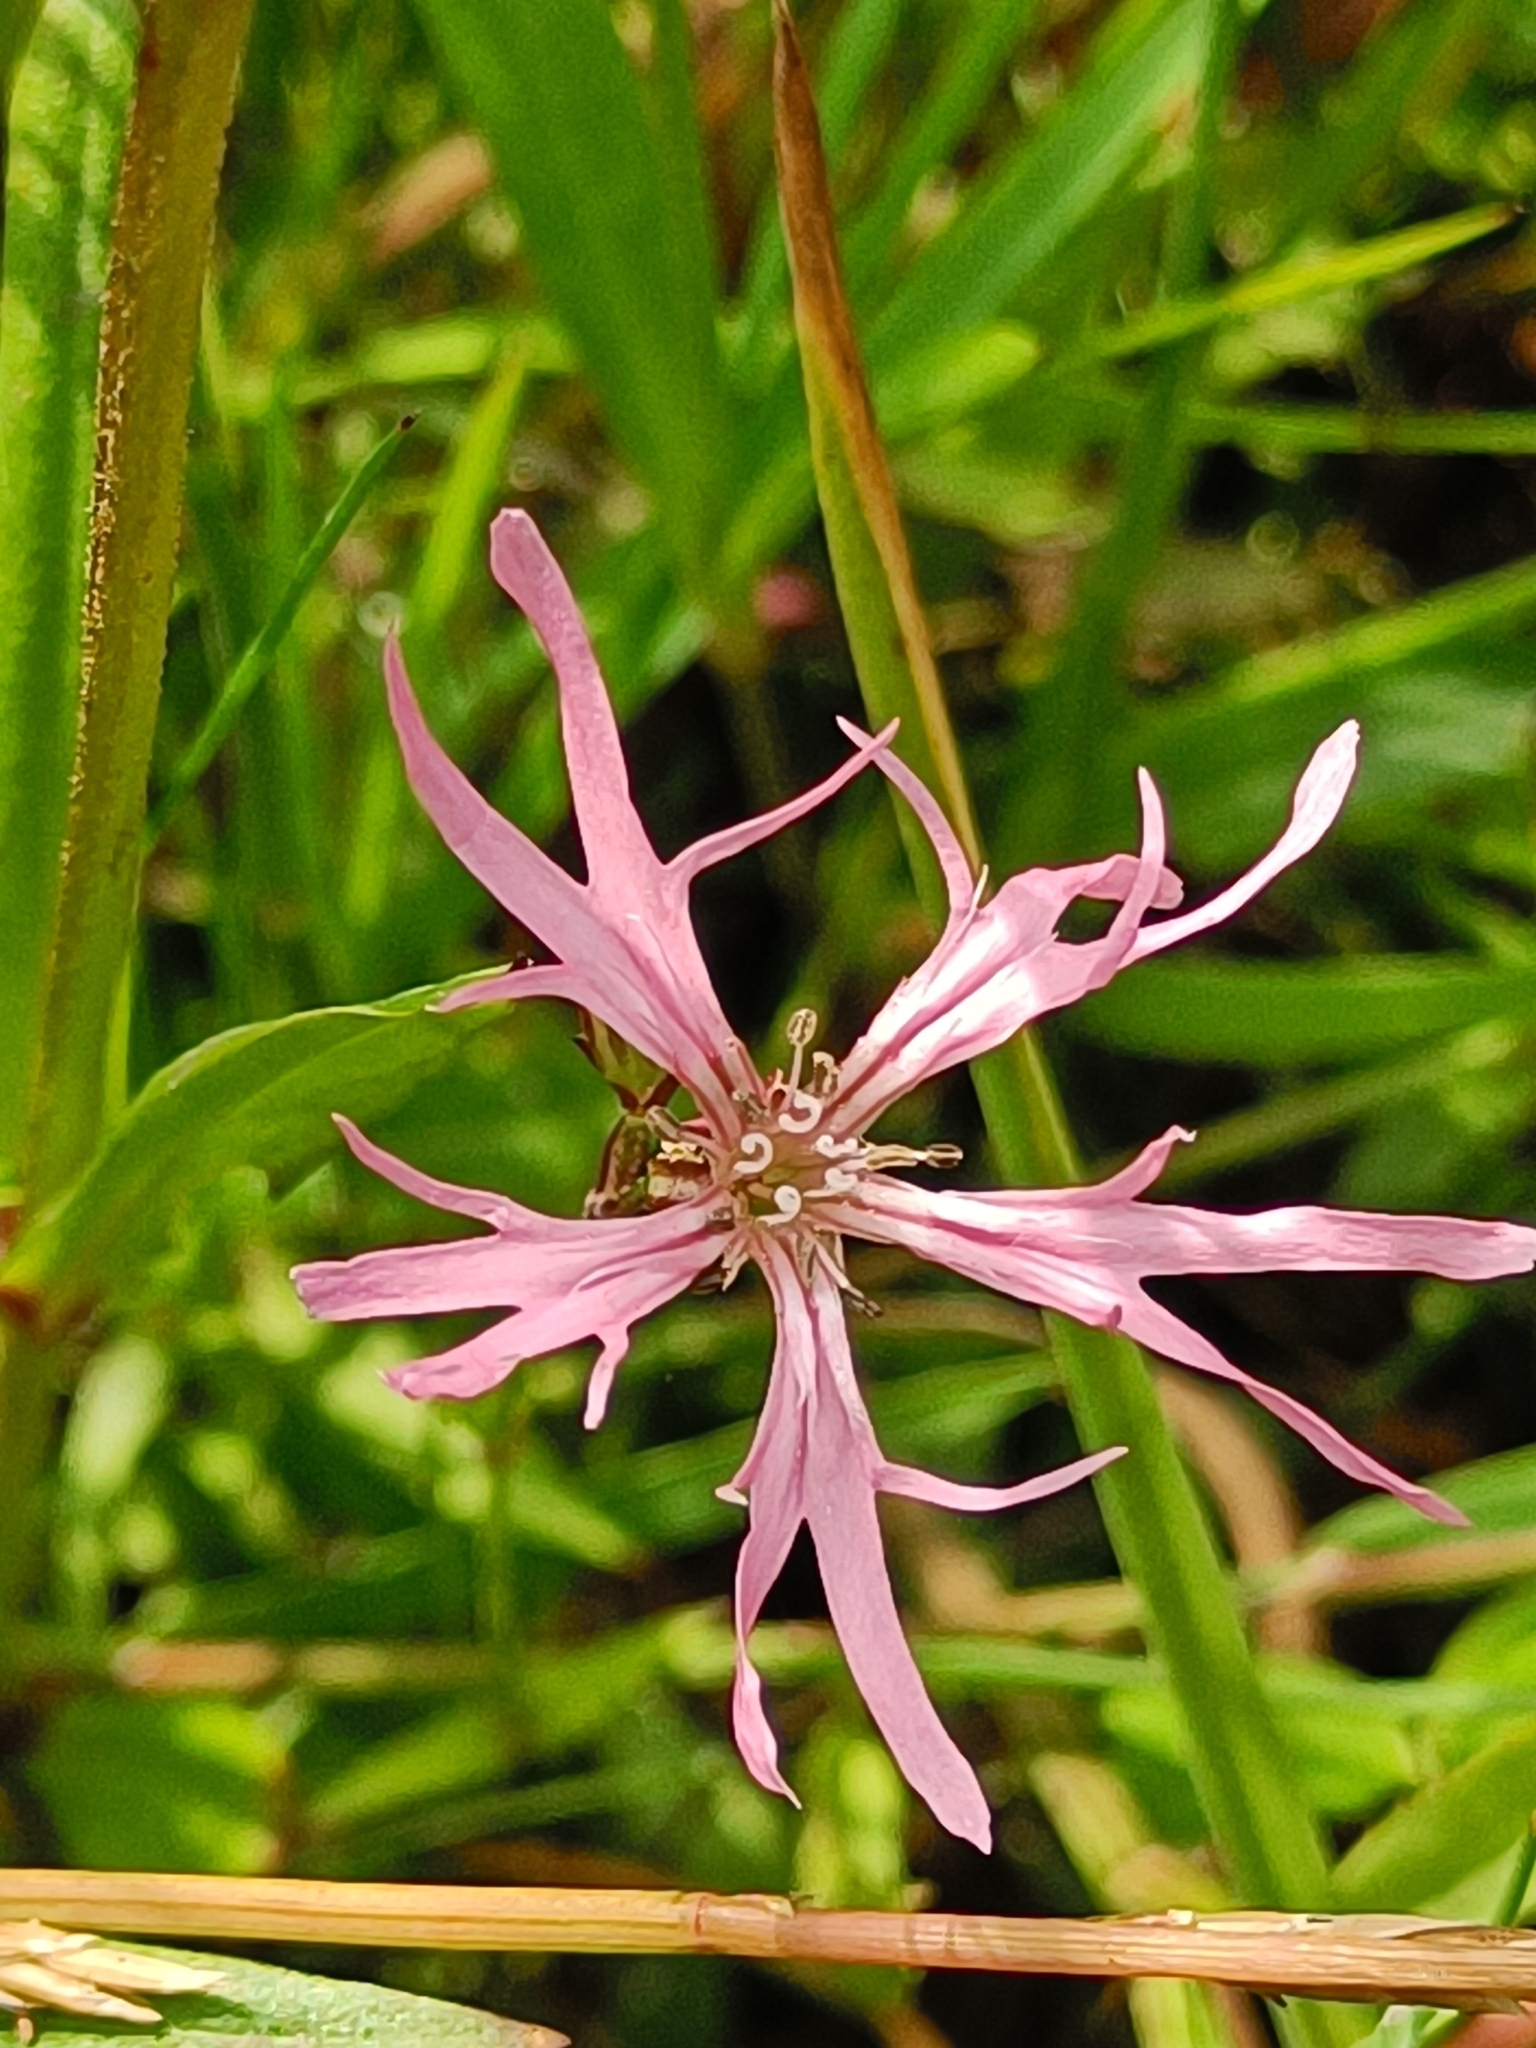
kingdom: Plantae
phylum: Tracheophyta
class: Magnoliopsida
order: Caryophyllales
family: Caryophyllaceae
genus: Silene
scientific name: Silene flos-cuculi
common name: Ragged-robin
